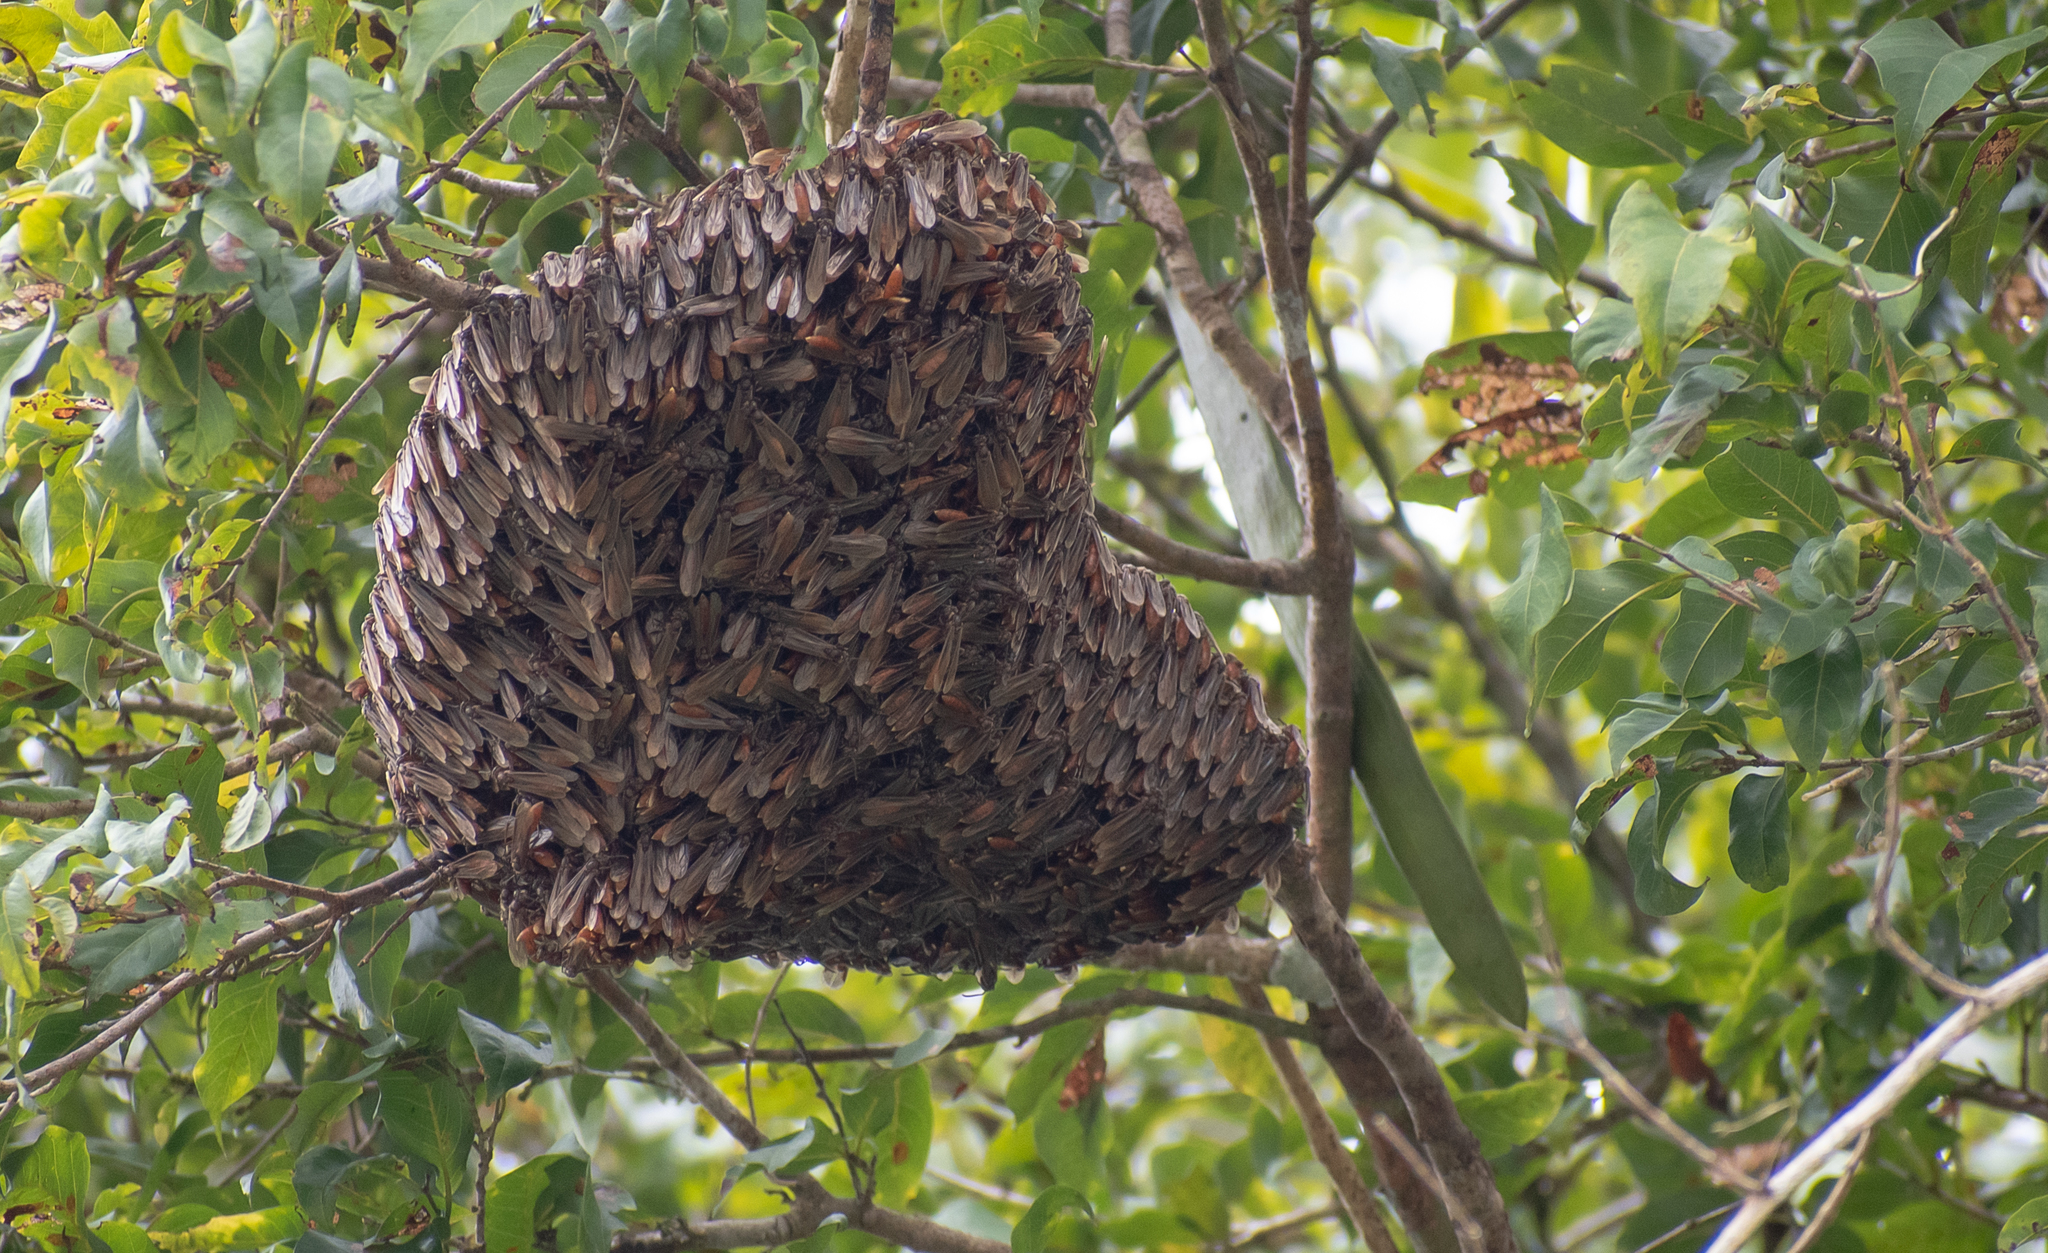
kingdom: Animalia
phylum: Arthropoda
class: Insecta
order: Hymenoptera
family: Vespidae
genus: Apoica
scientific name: Apoica pallida
